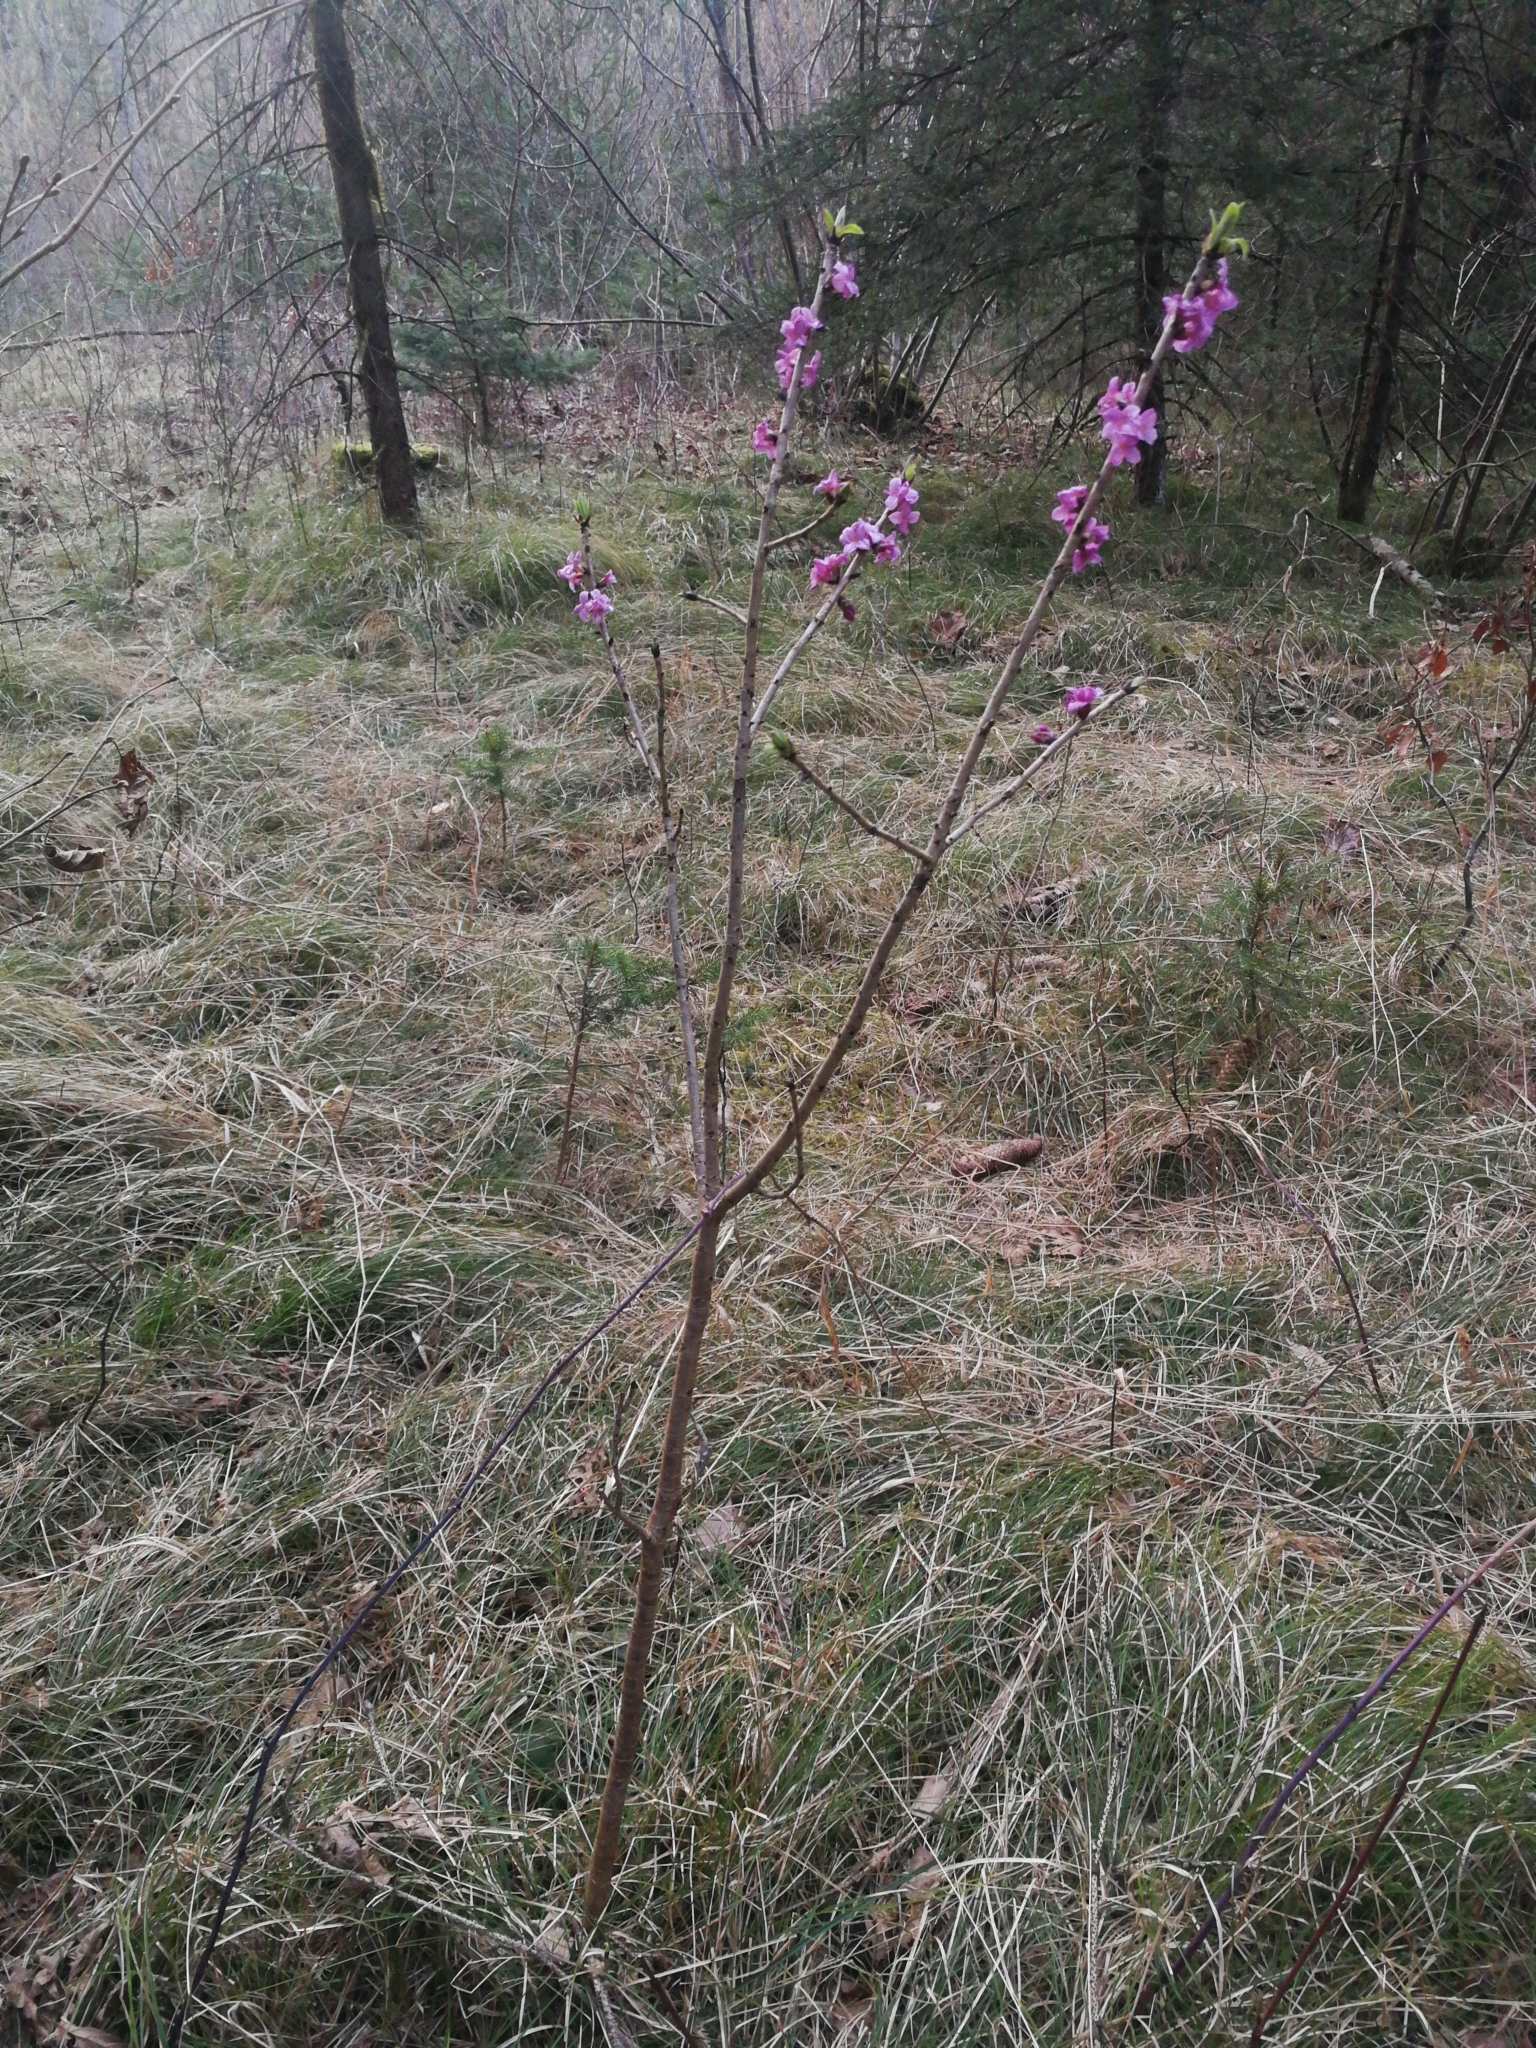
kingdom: Plantae
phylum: Tracheophyta
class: Magnoliopsida
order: Malvales
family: Thymelaeaceae
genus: Daphne
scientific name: Daphne mezereum
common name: Mezereon
